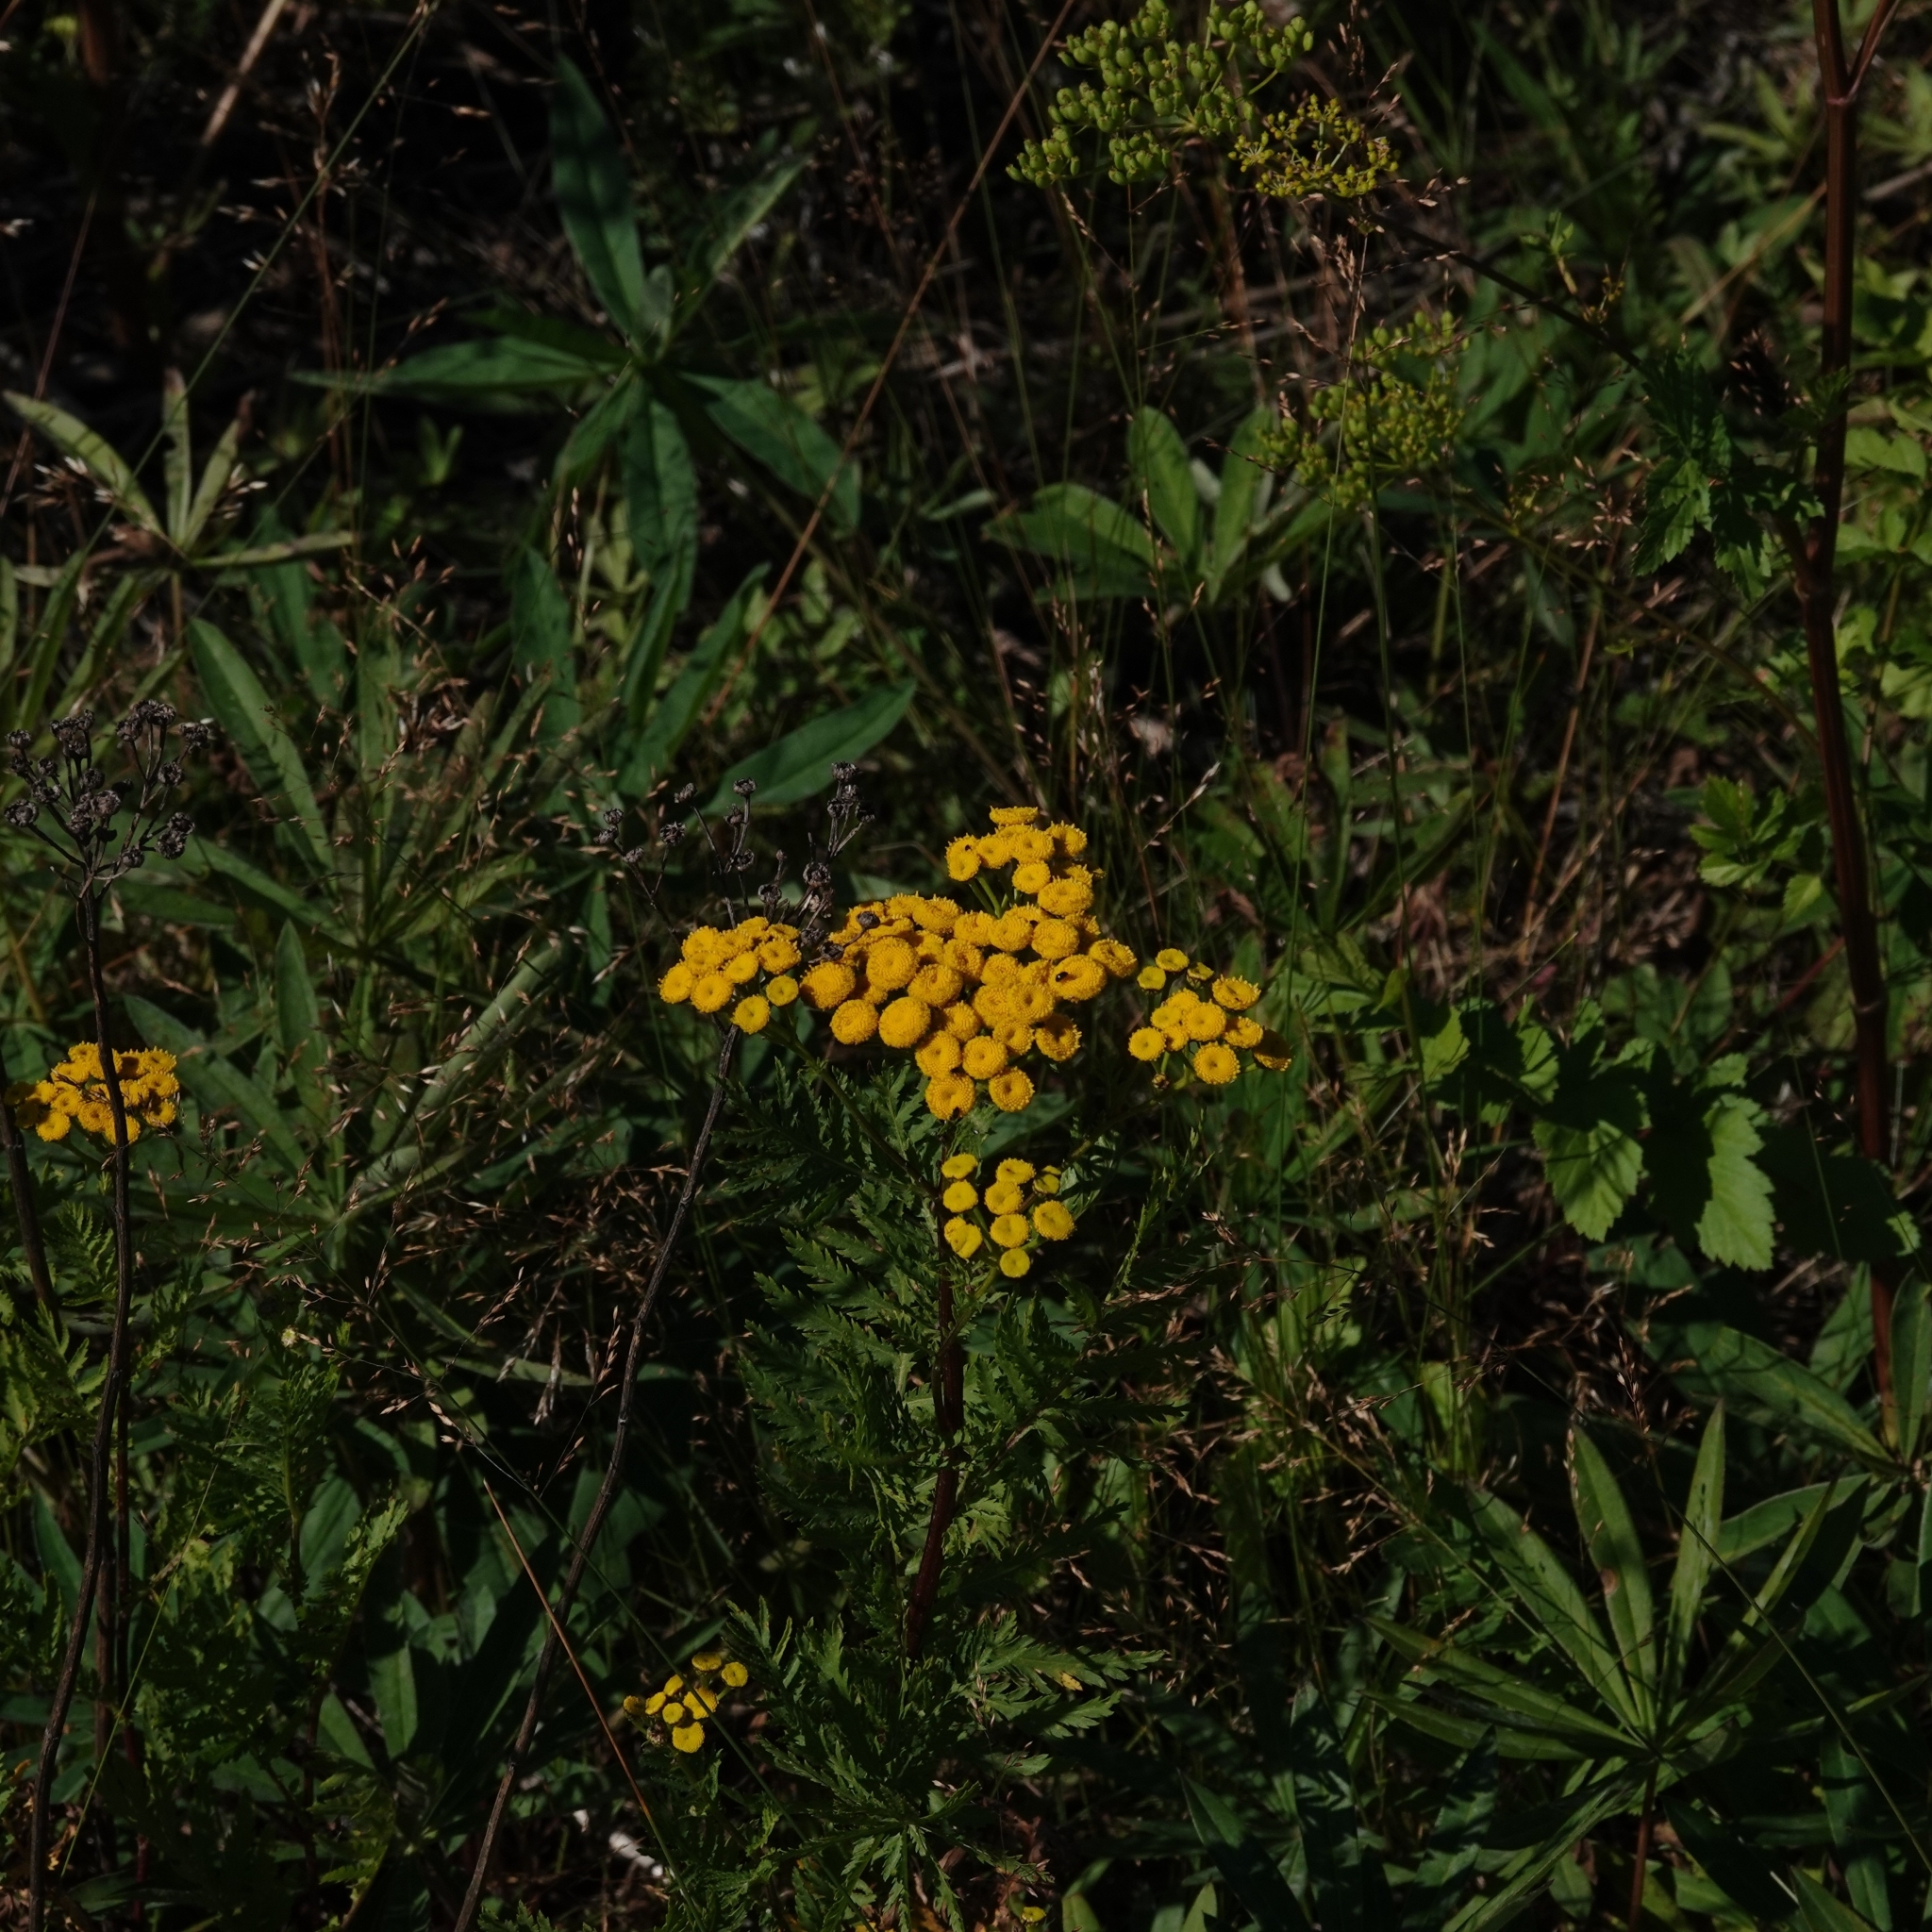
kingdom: Plantae
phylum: Tracheophyta
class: Magnoliopsida
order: Asterales
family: Asteraceae
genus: Tanacetum
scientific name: Tanacetum vulgare
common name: Common tansy
